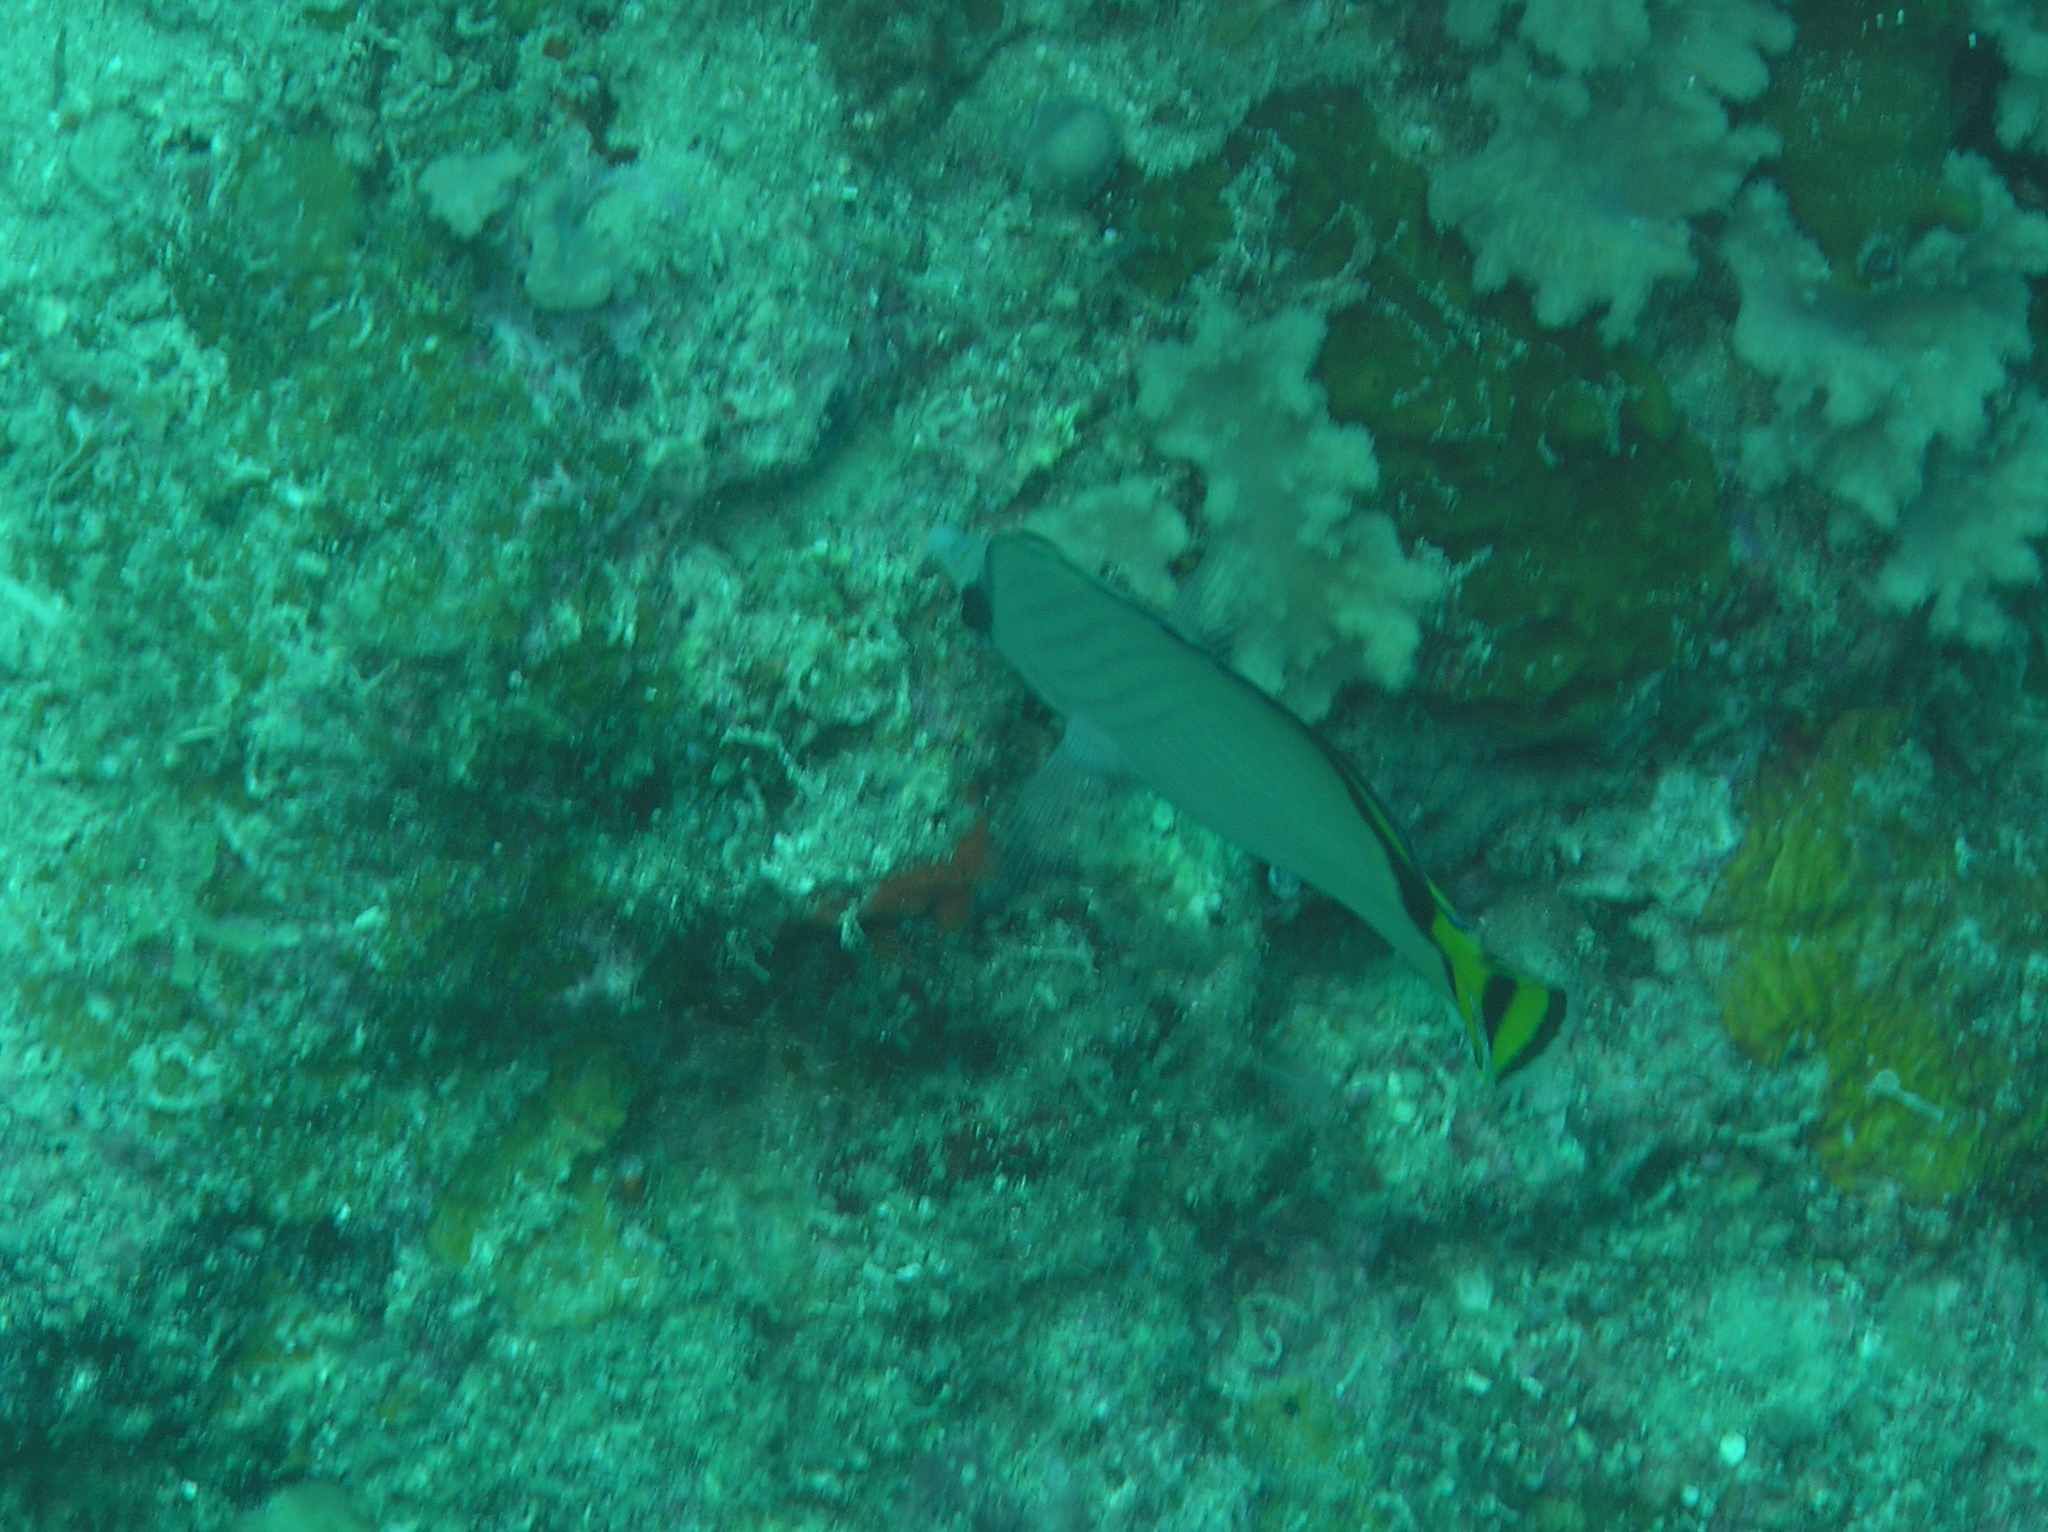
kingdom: Animalia
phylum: Chordata
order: Perciformes
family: Chaetodontidae
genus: Chaetodon
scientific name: Chaetodon vagabundus
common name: Vagabond butterflyfish
